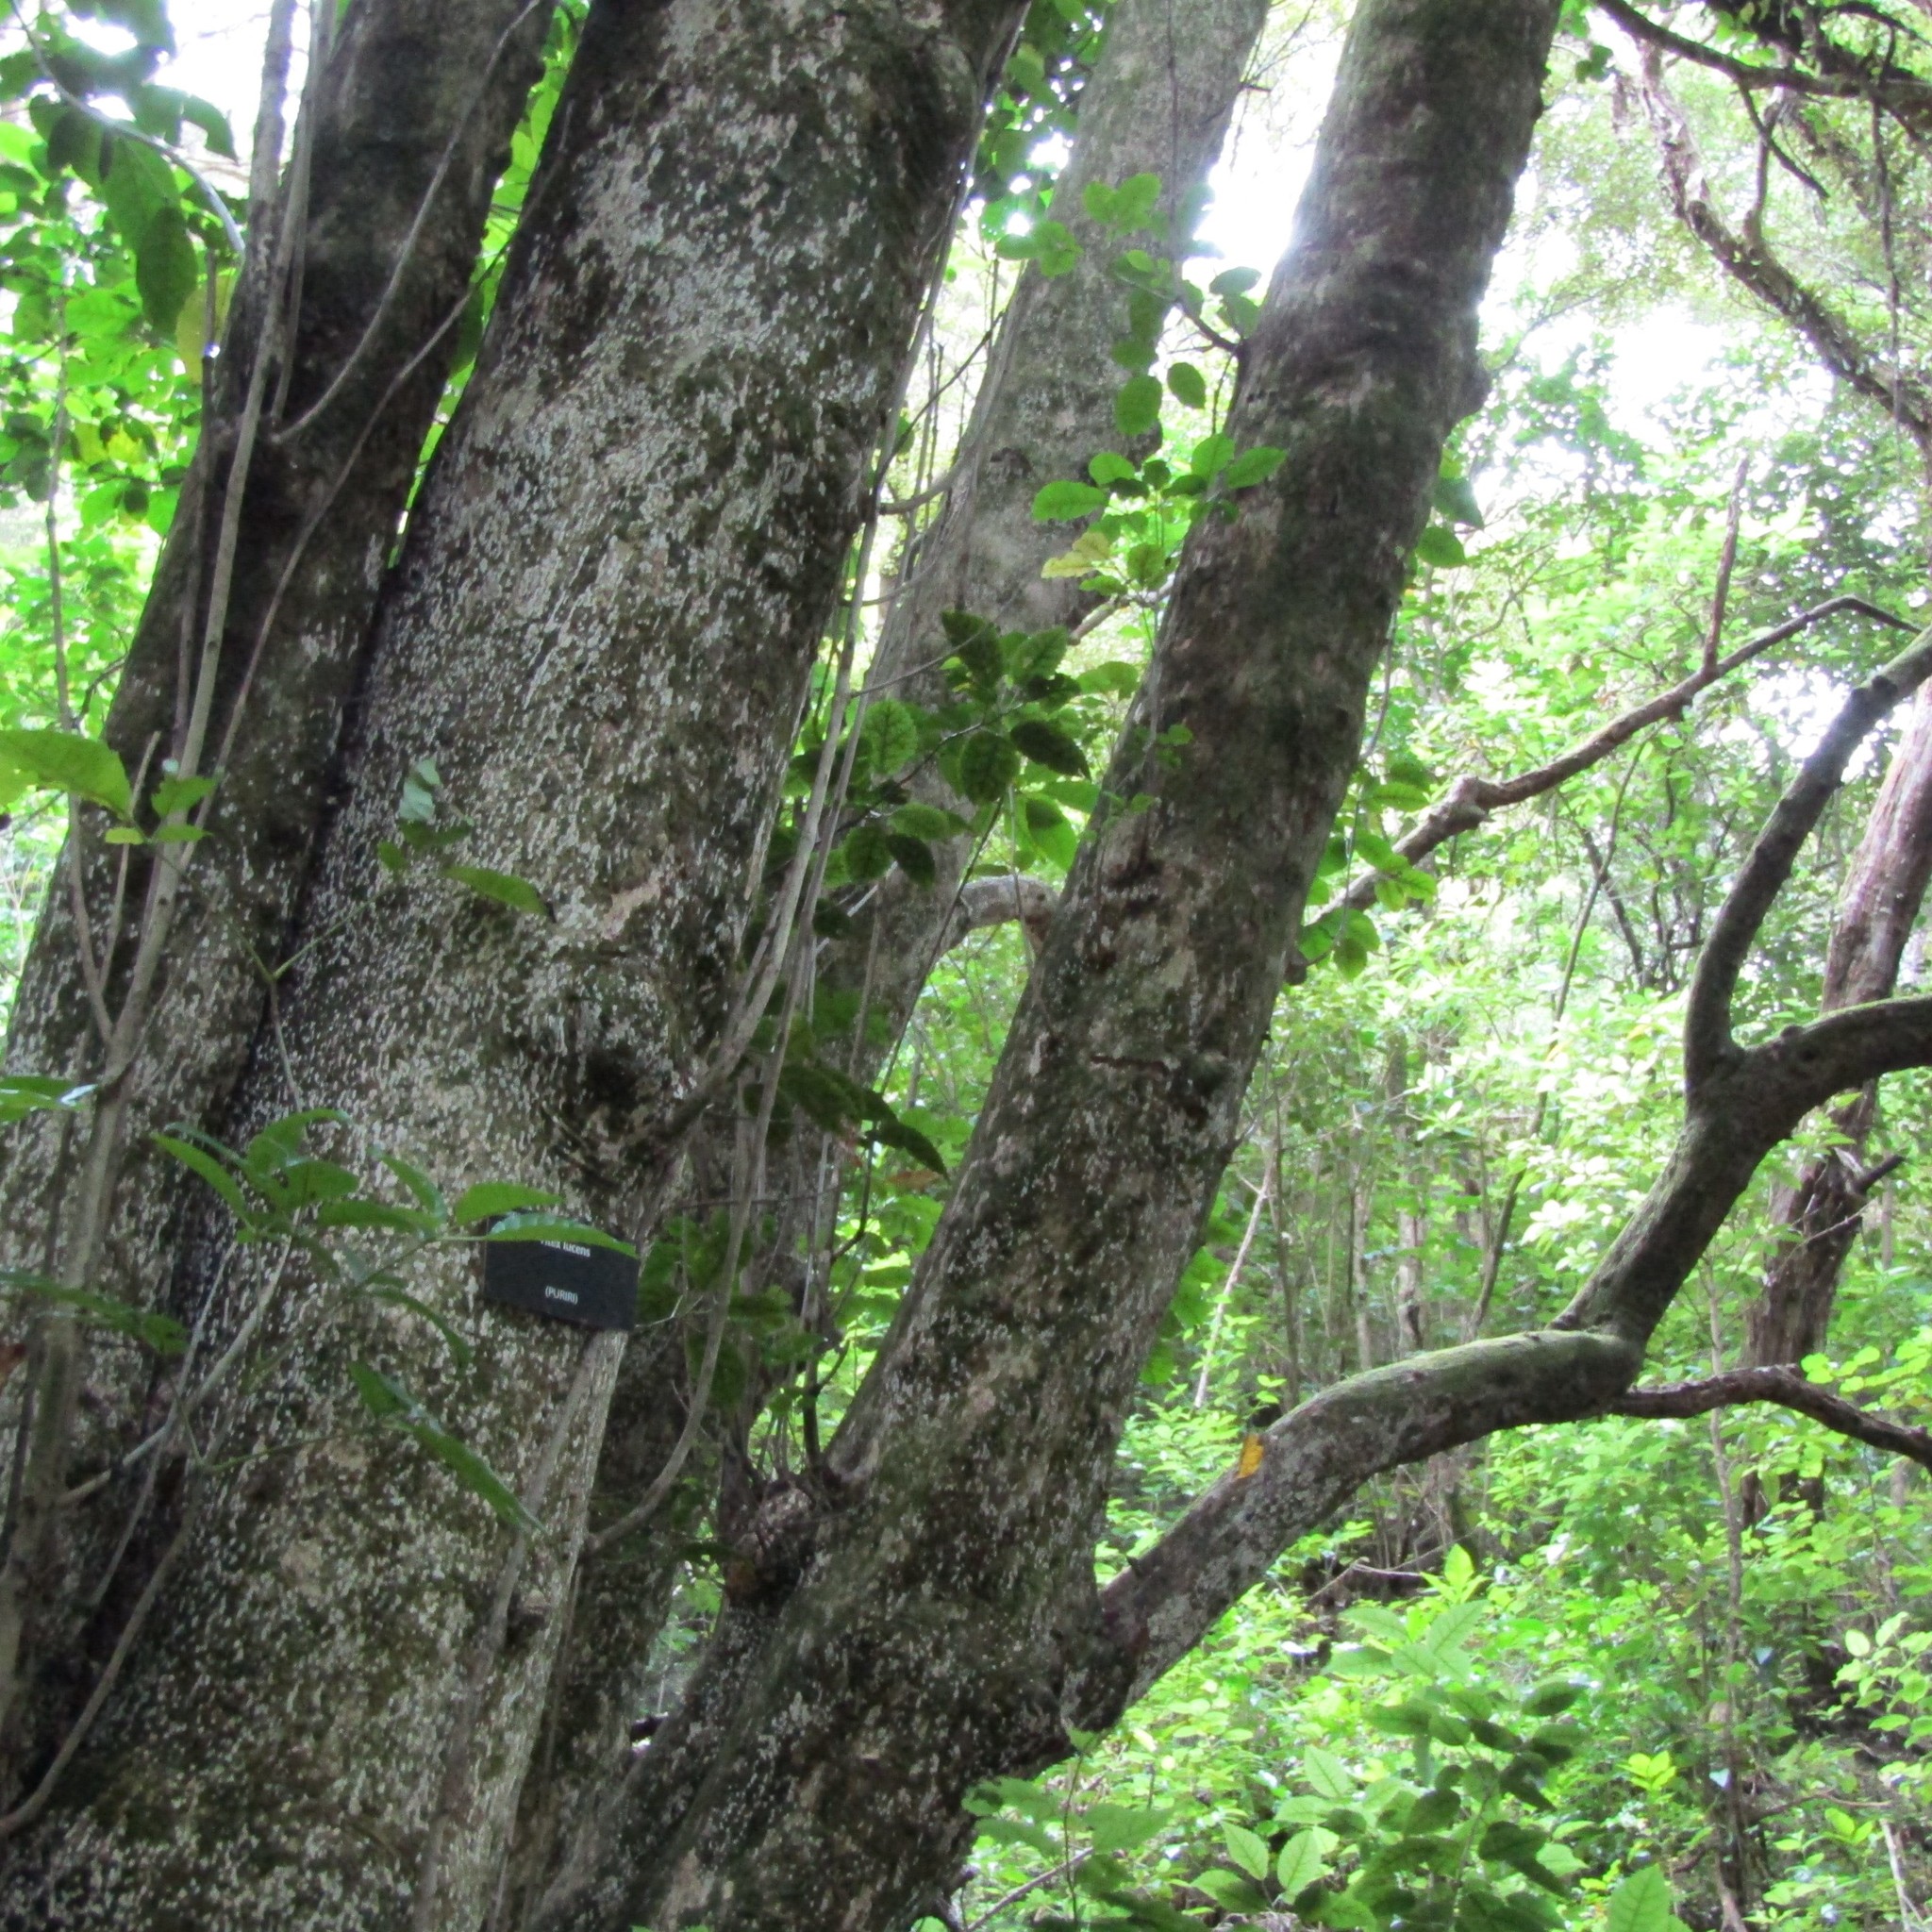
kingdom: Animalia
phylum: Chordata
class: Aves
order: Psittaciformes
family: Psittacidae
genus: Nestor
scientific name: Nestor meridionalis
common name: New zealand kaka
